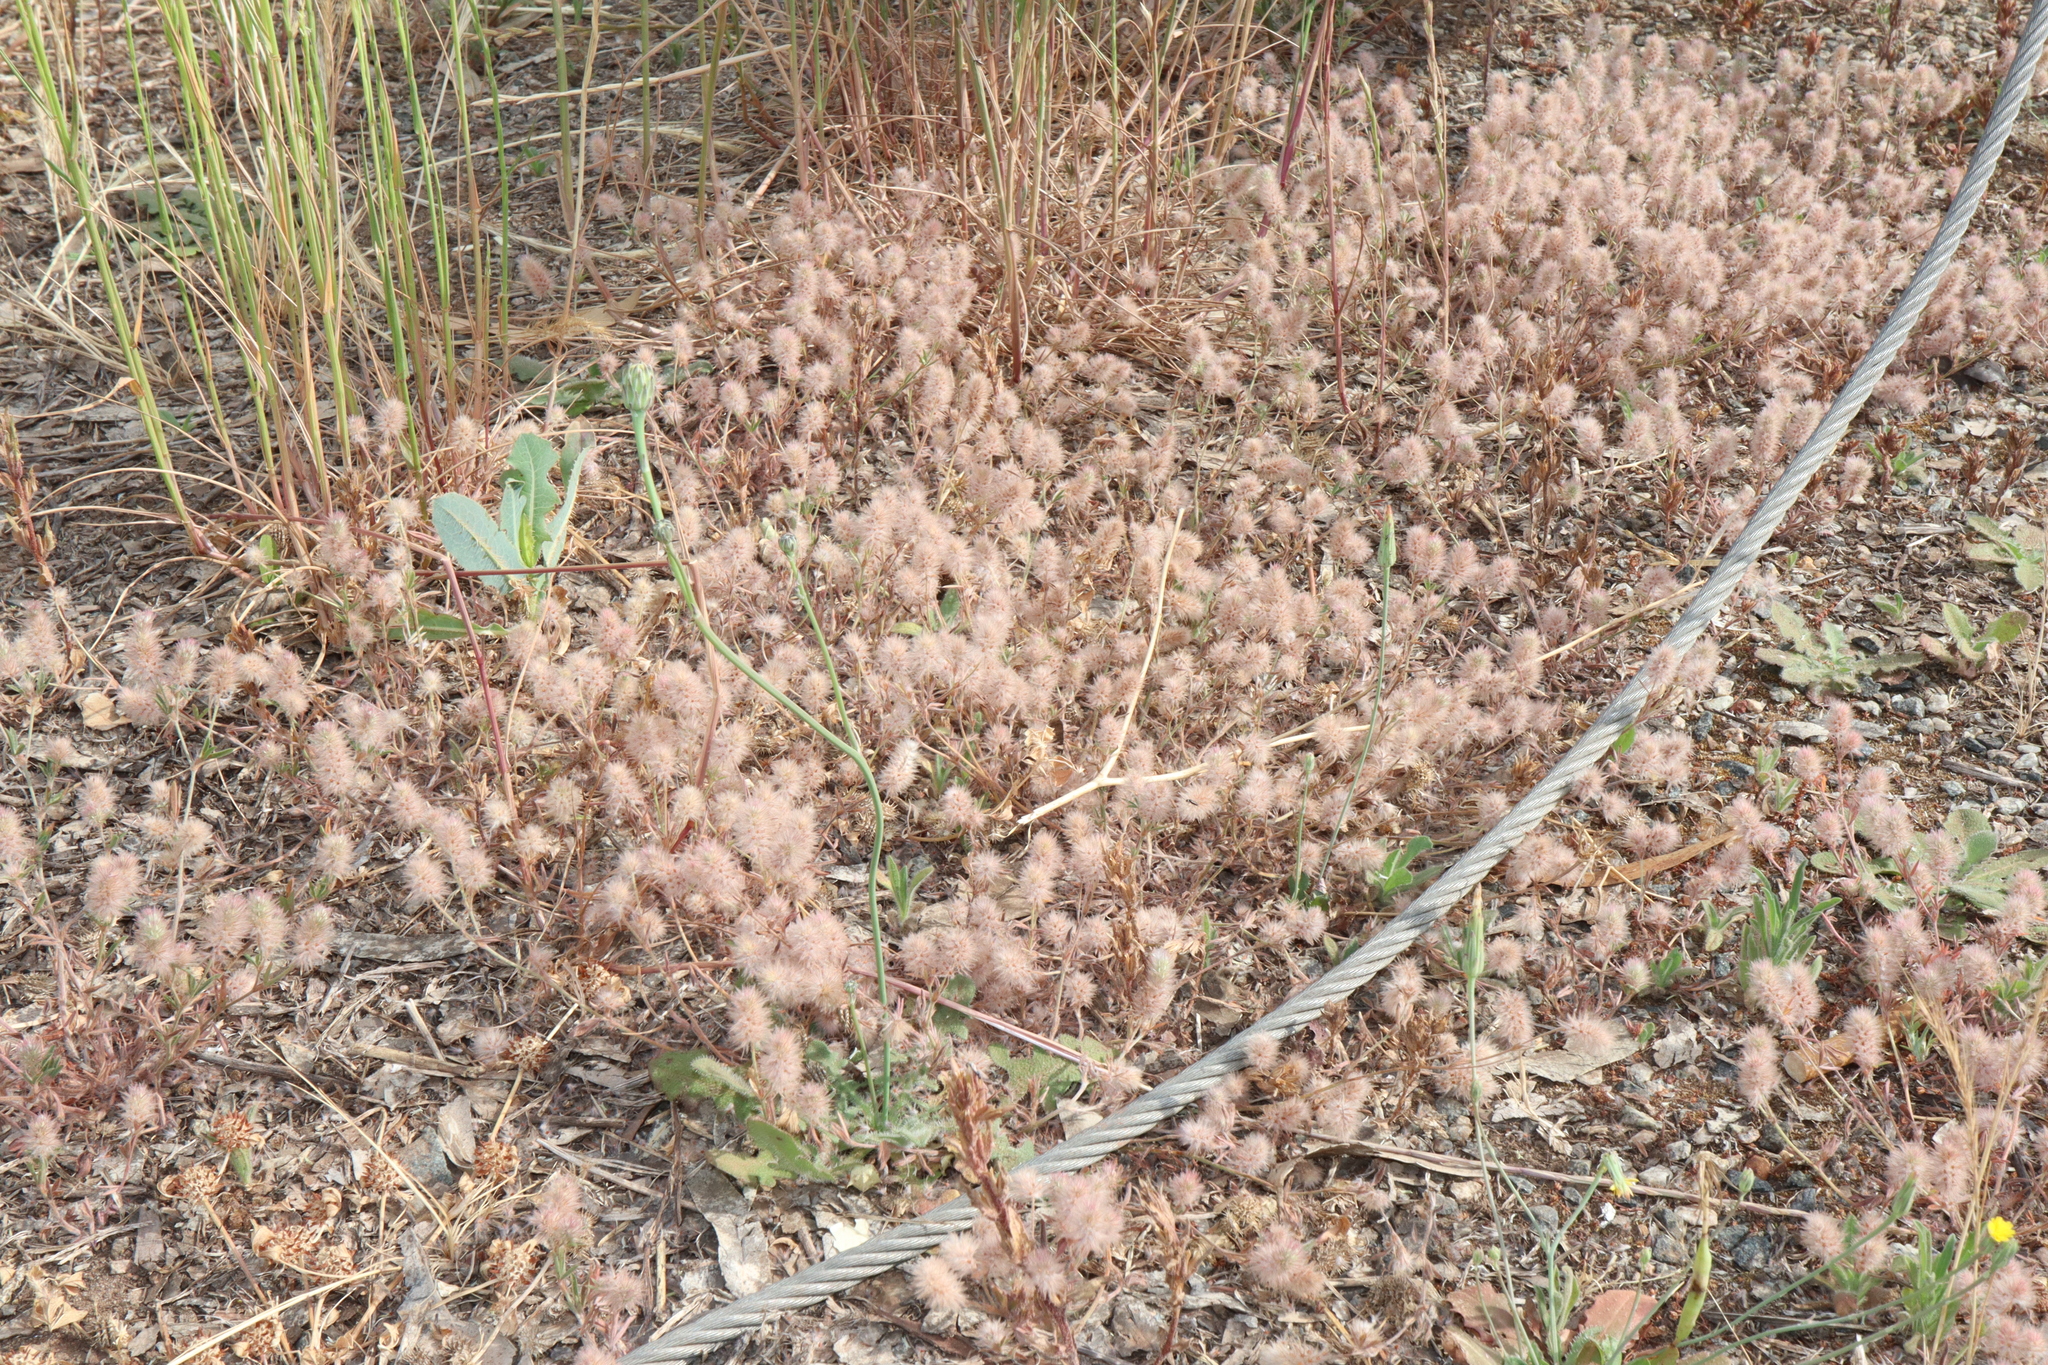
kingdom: Plantae
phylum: Tracheophyta
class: Magnoliopsida
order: Fabales
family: Fabaceae
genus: Trifolium
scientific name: Trifolium arvense
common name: Hare's-foot clover
